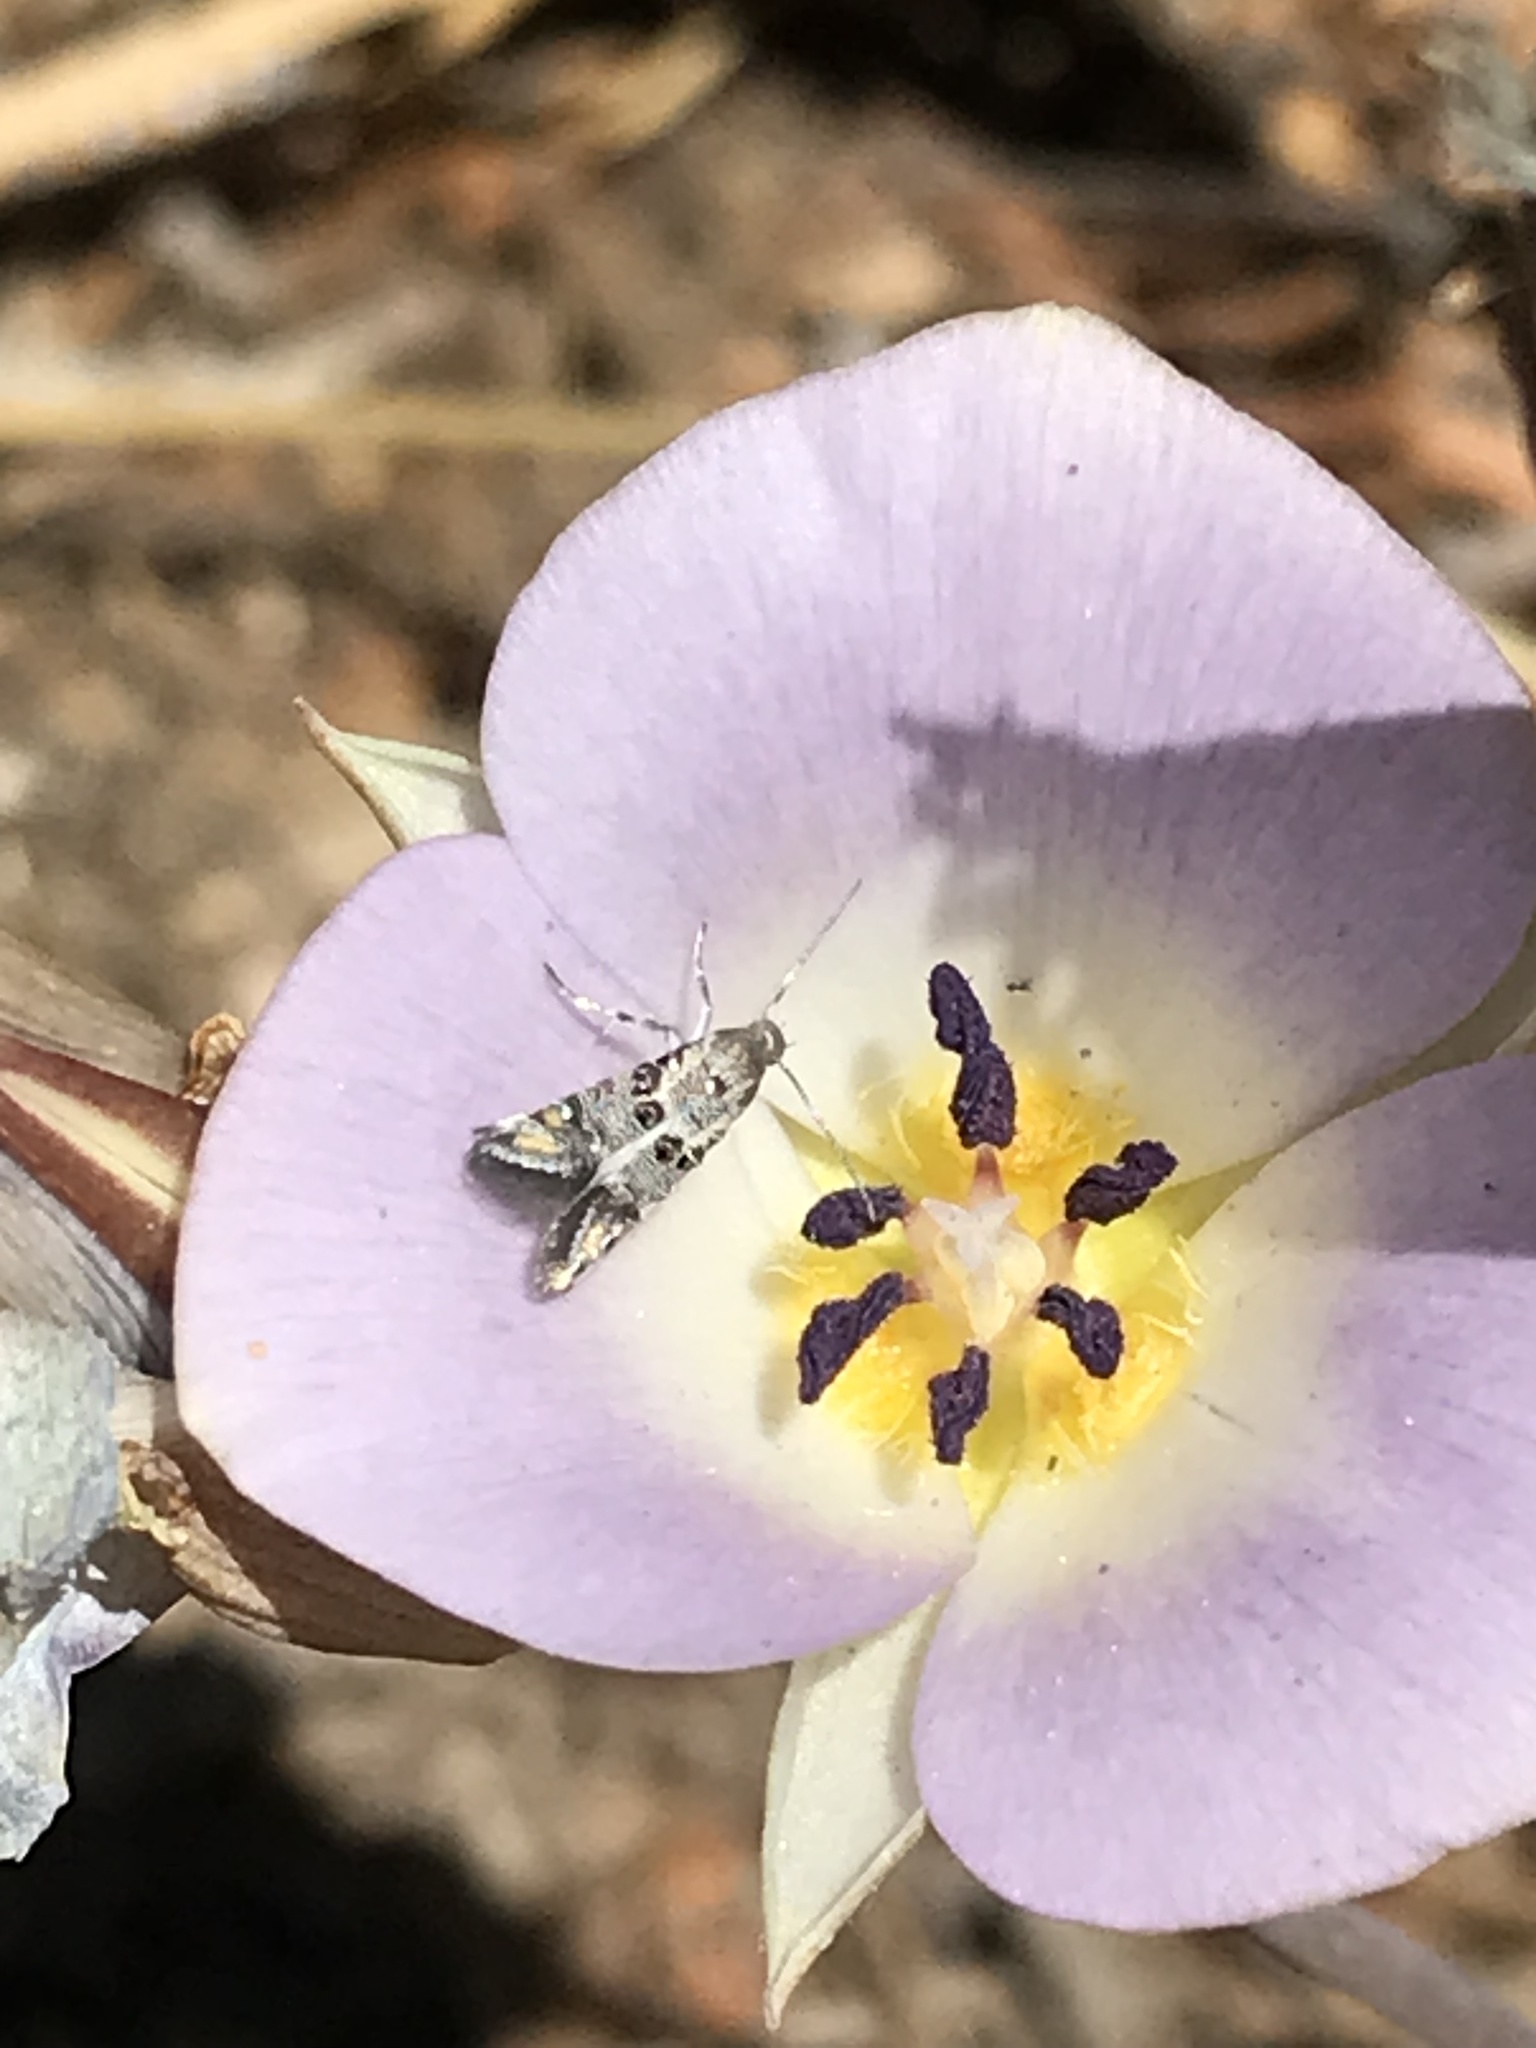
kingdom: Animalia
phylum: Arthropoda
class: Insecta
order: Lepidoptera
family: Heliodinidae
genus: Lithariapteryx
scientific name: Lithariapteryx mirabilinella
